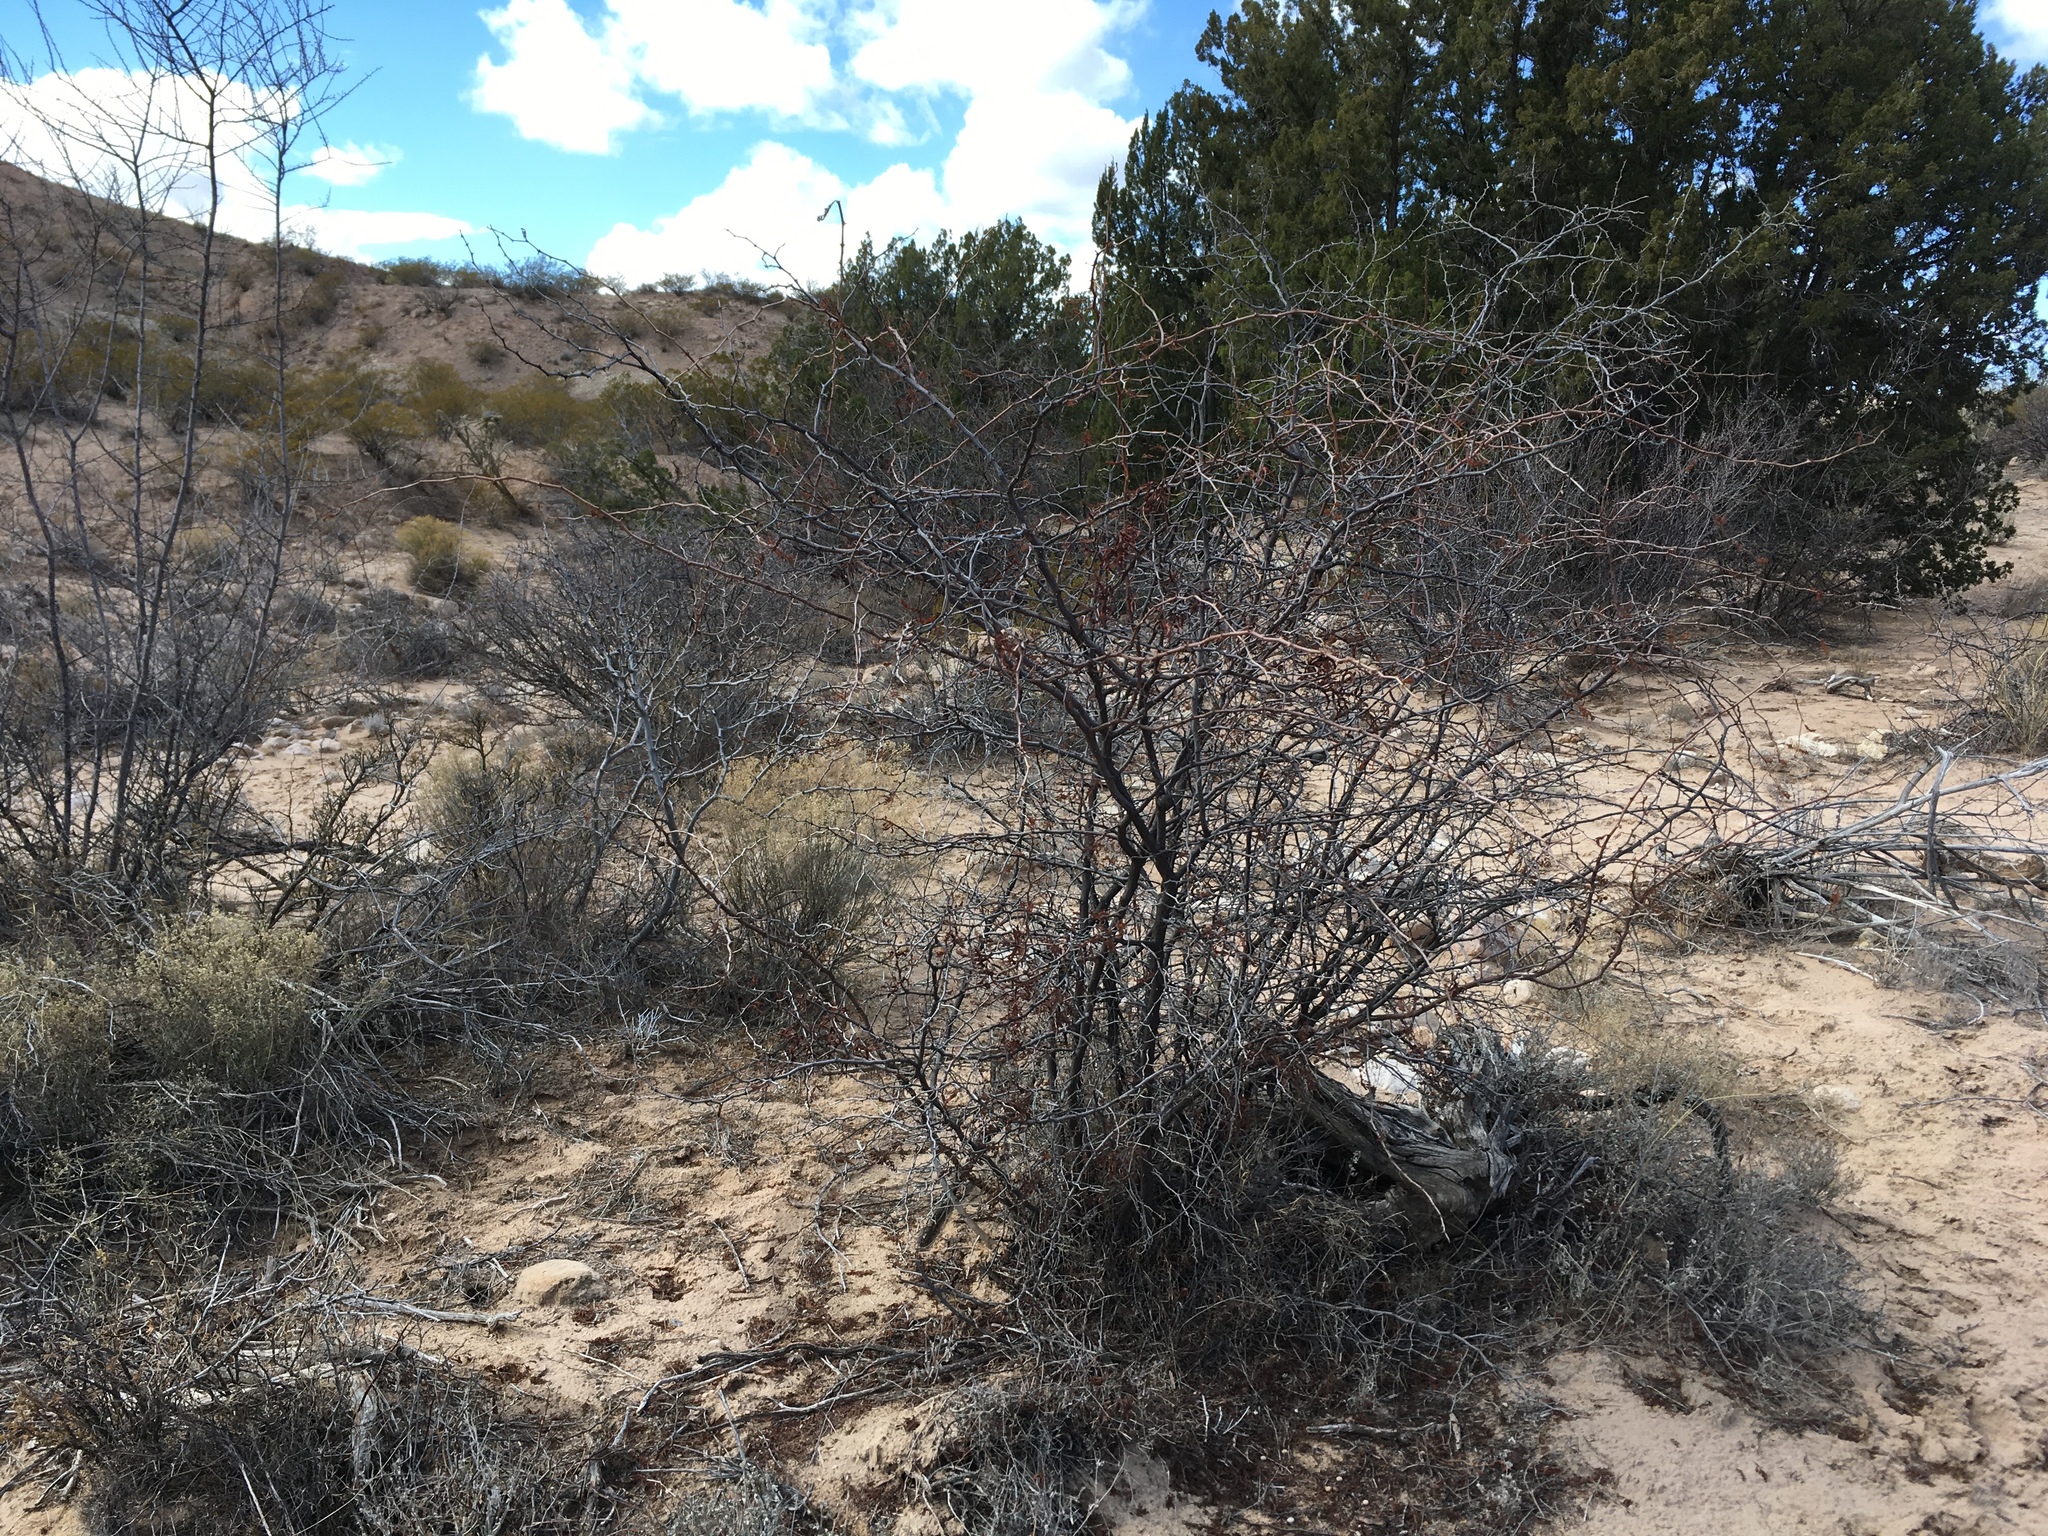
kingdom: Plantae
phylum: Tracheophyta
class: Magnoliopsida
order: Fabales
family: Fabaceae
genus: Mimosa
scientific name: Mimosa biuncifera
